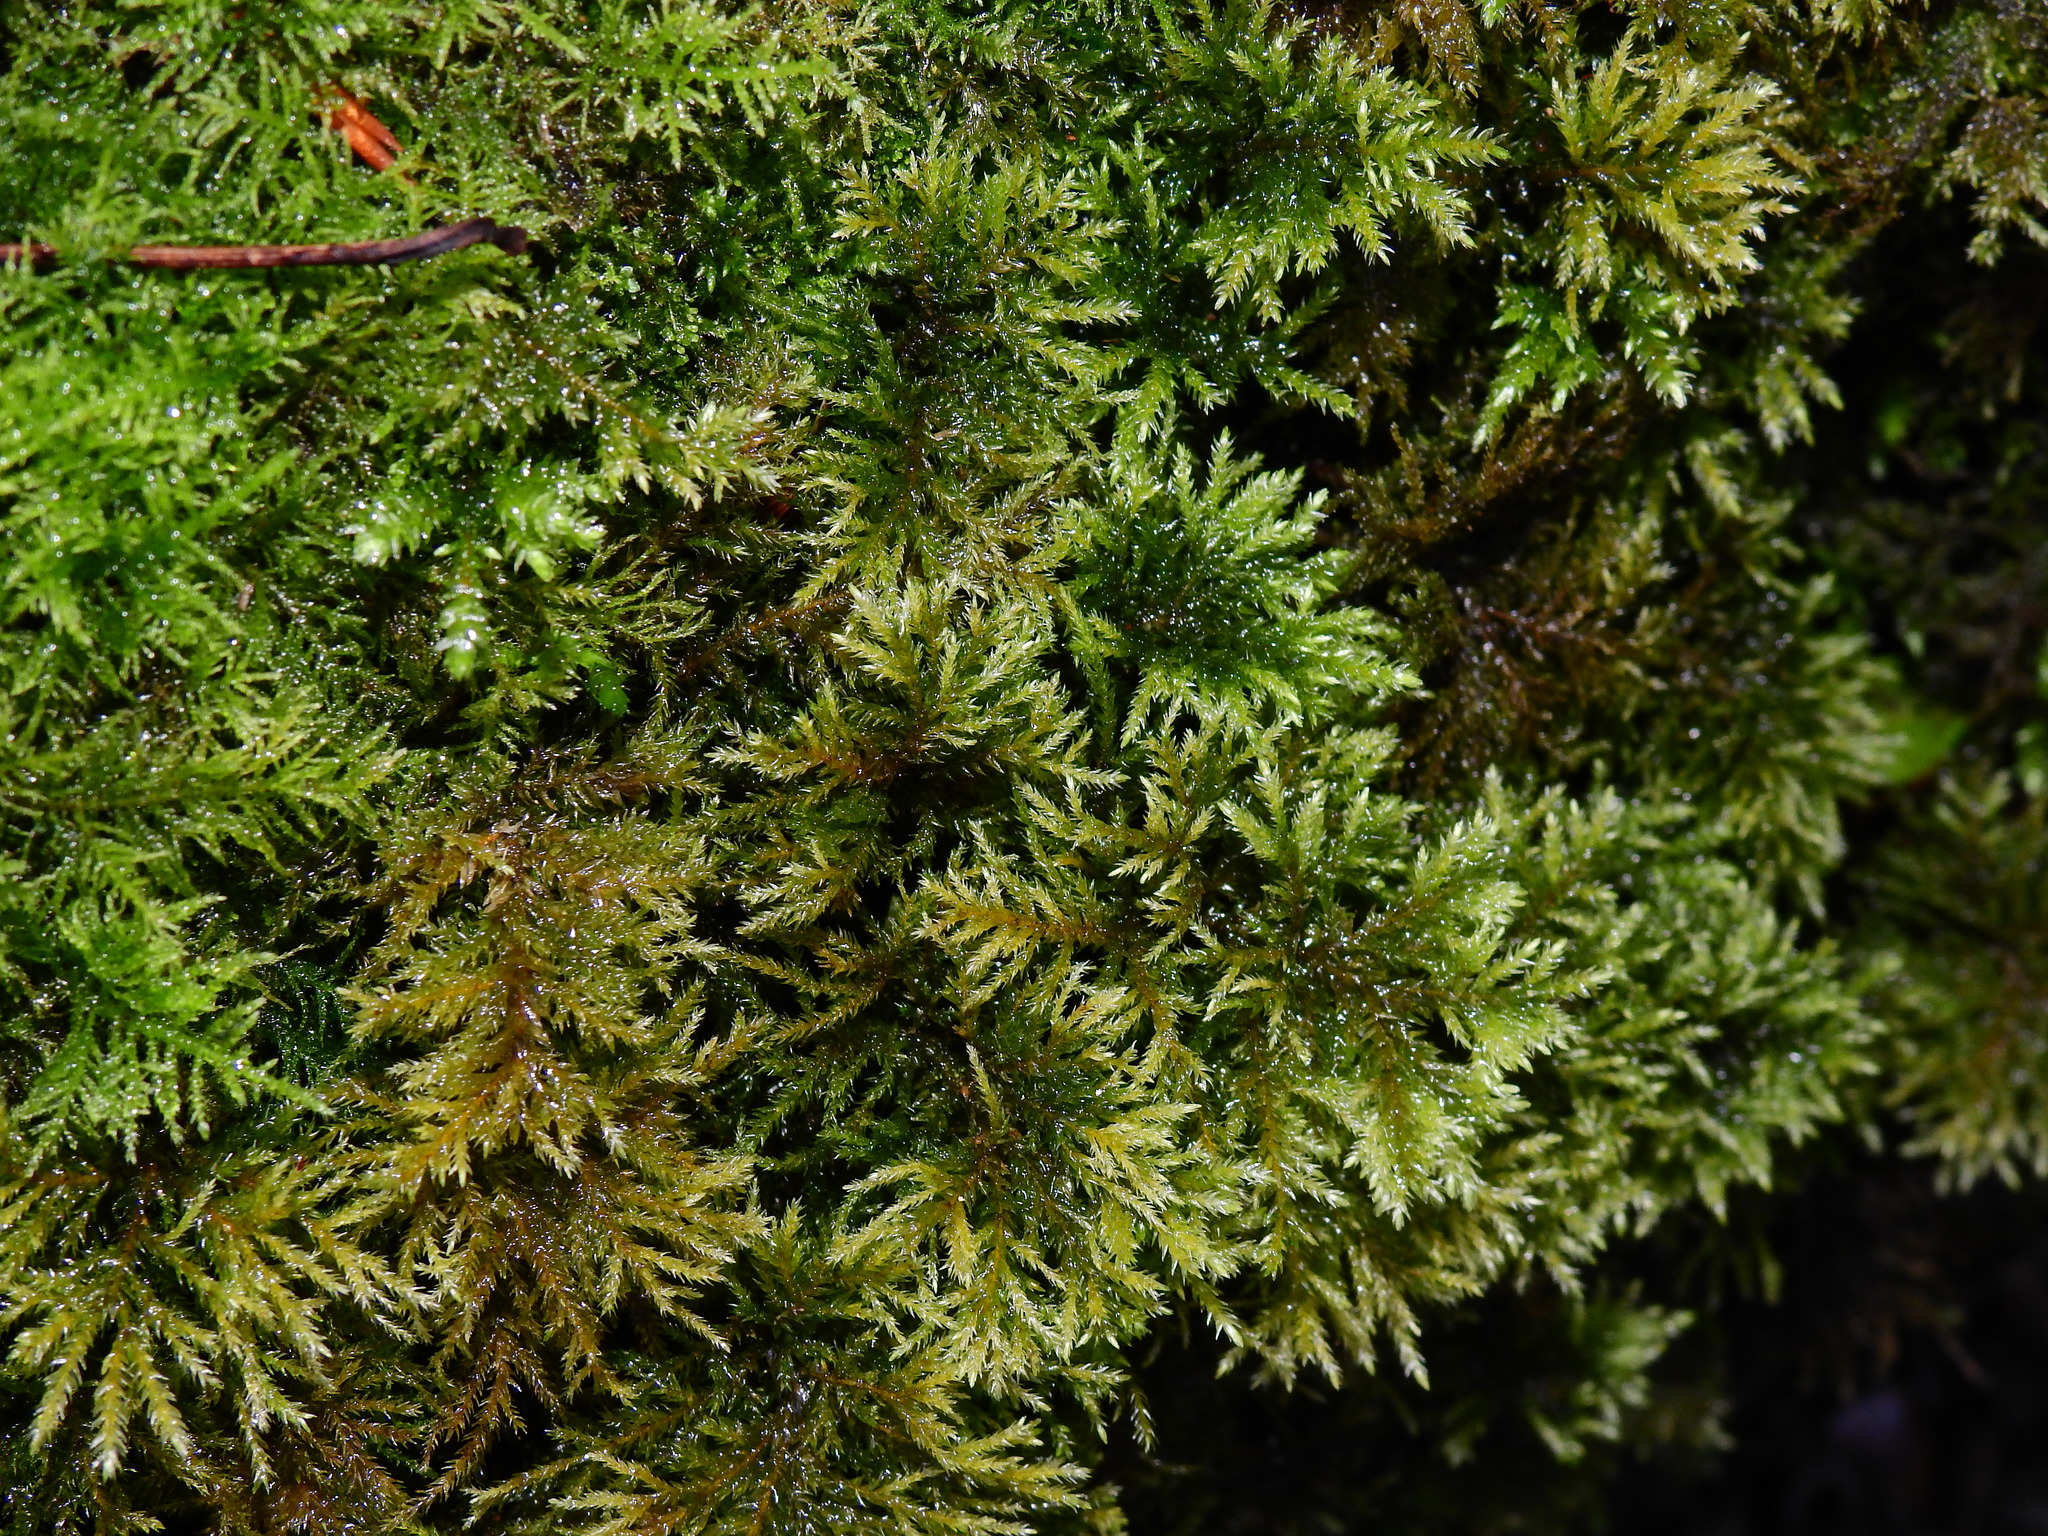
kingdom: Plantae
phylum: Bryophyta
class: Bryopsida
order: Hypnales
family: Neckeraceae
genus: Thamnobryum
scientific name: Thamnobryum alopecurum
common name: Fox-tail feather-moss
